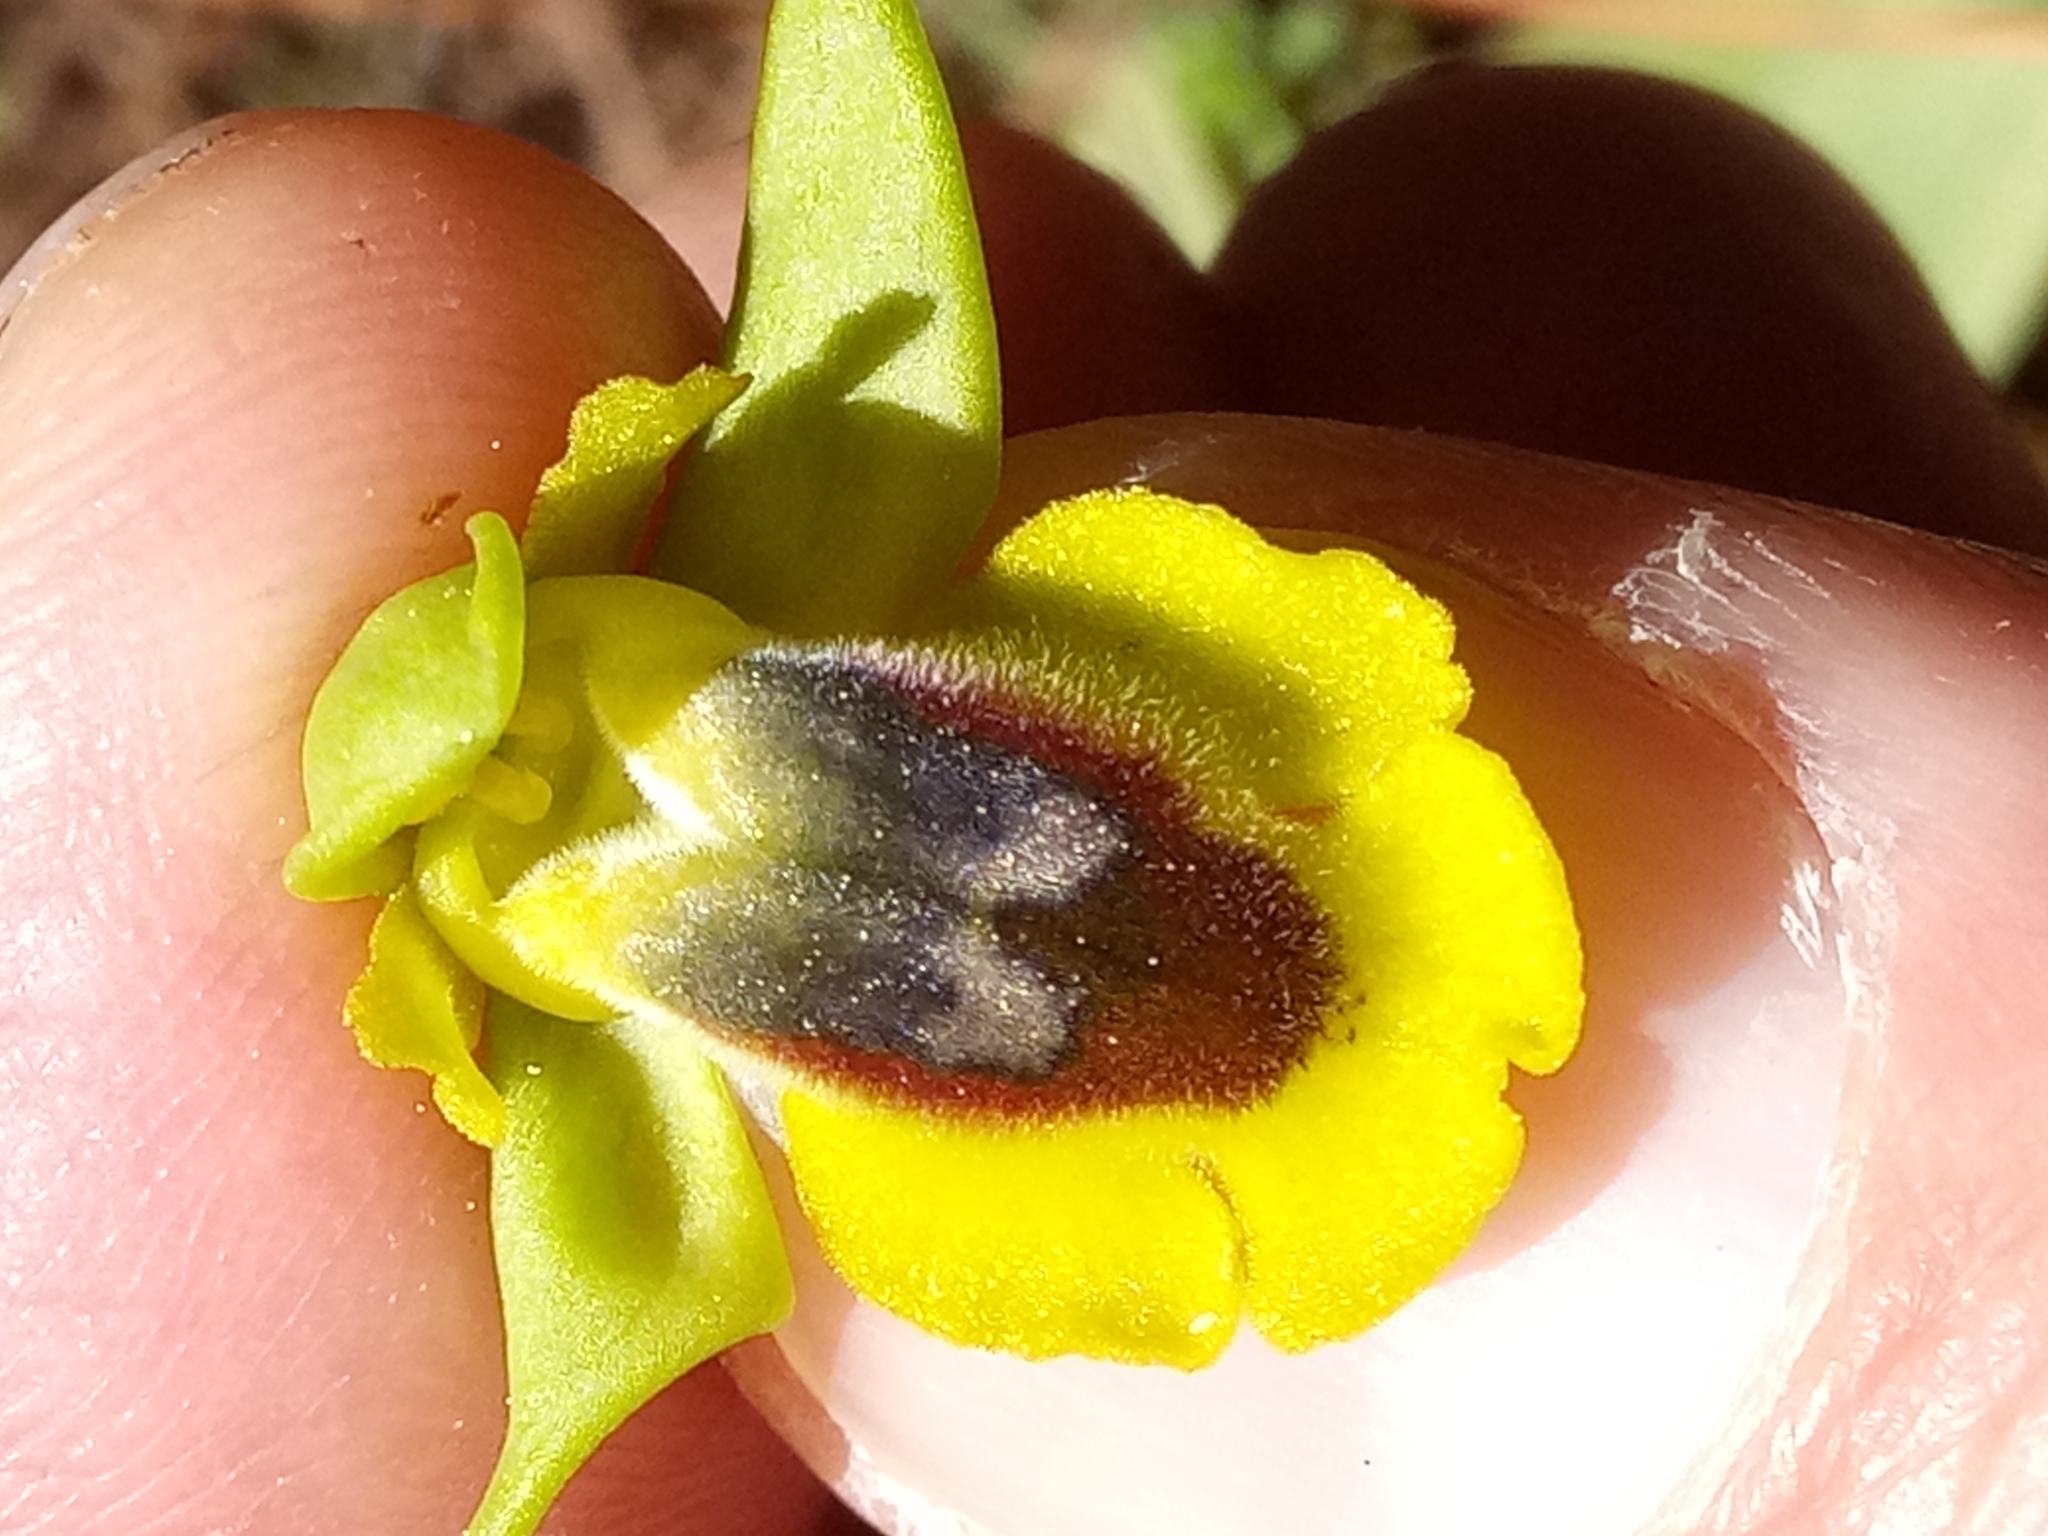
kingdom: Plantae
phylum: Tracheophyta
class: Liliopsida
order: Asparagales
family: Orchidaceae
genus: Ophrys
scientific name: Ophrys lutea
